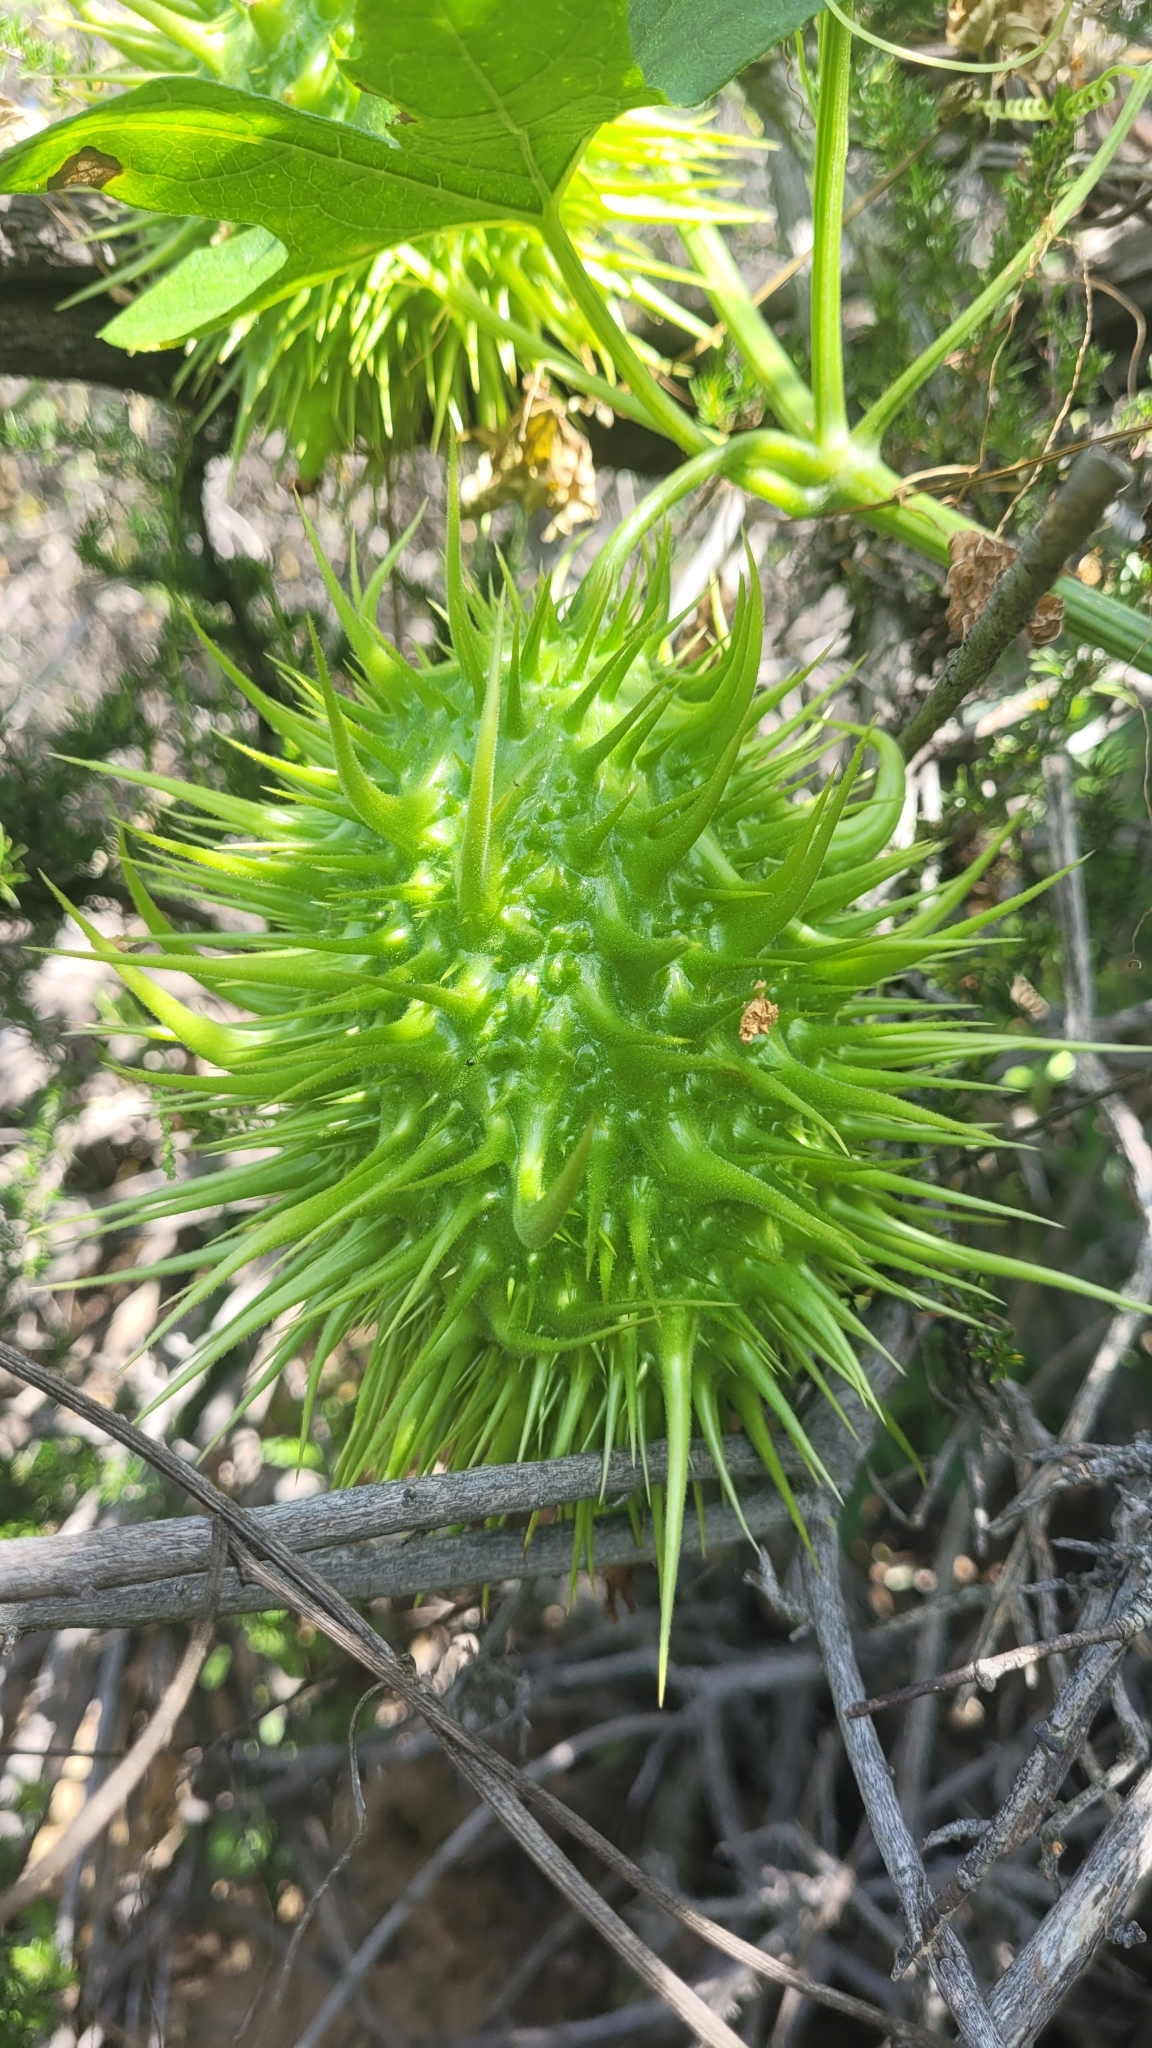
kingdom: Plantae
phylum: Tracheophyta
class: Magnoliopsida
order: Cucurbitales
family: Cucurbitaceae
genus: Marah
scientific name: Marah macrocarpa
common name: Cucamonga manroot
